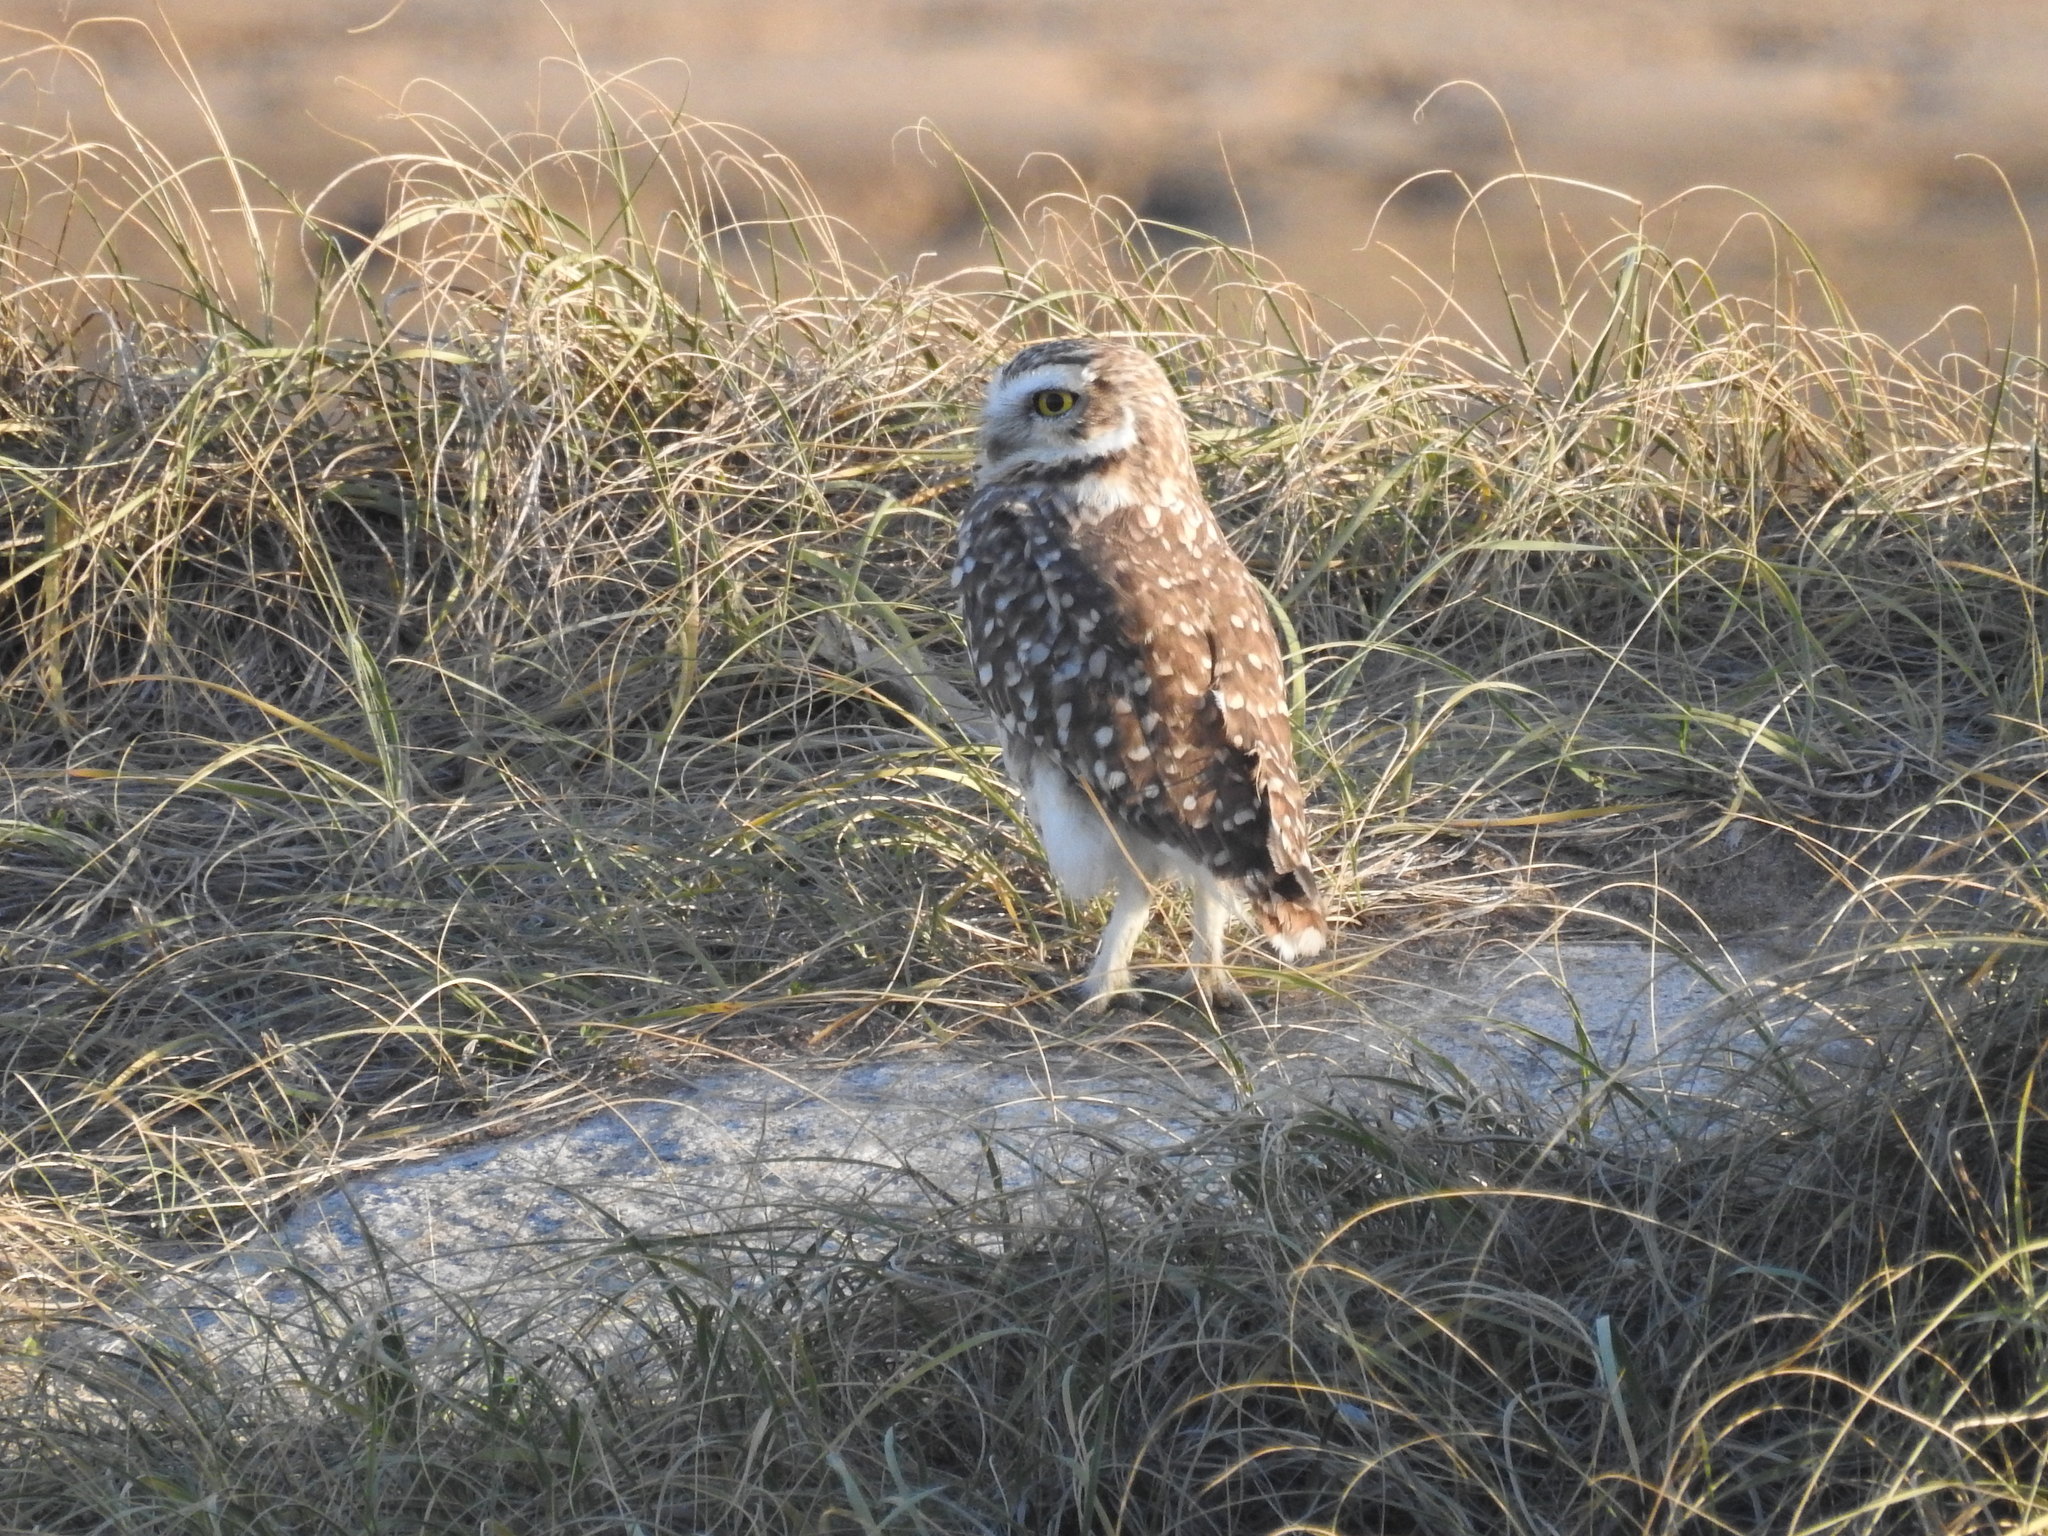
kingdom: Animalia
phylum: Chordata
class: Aves
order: Strigiformes
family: Strigidae
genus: Athene
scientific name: Athene cunicularia
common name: Burrowing owl
